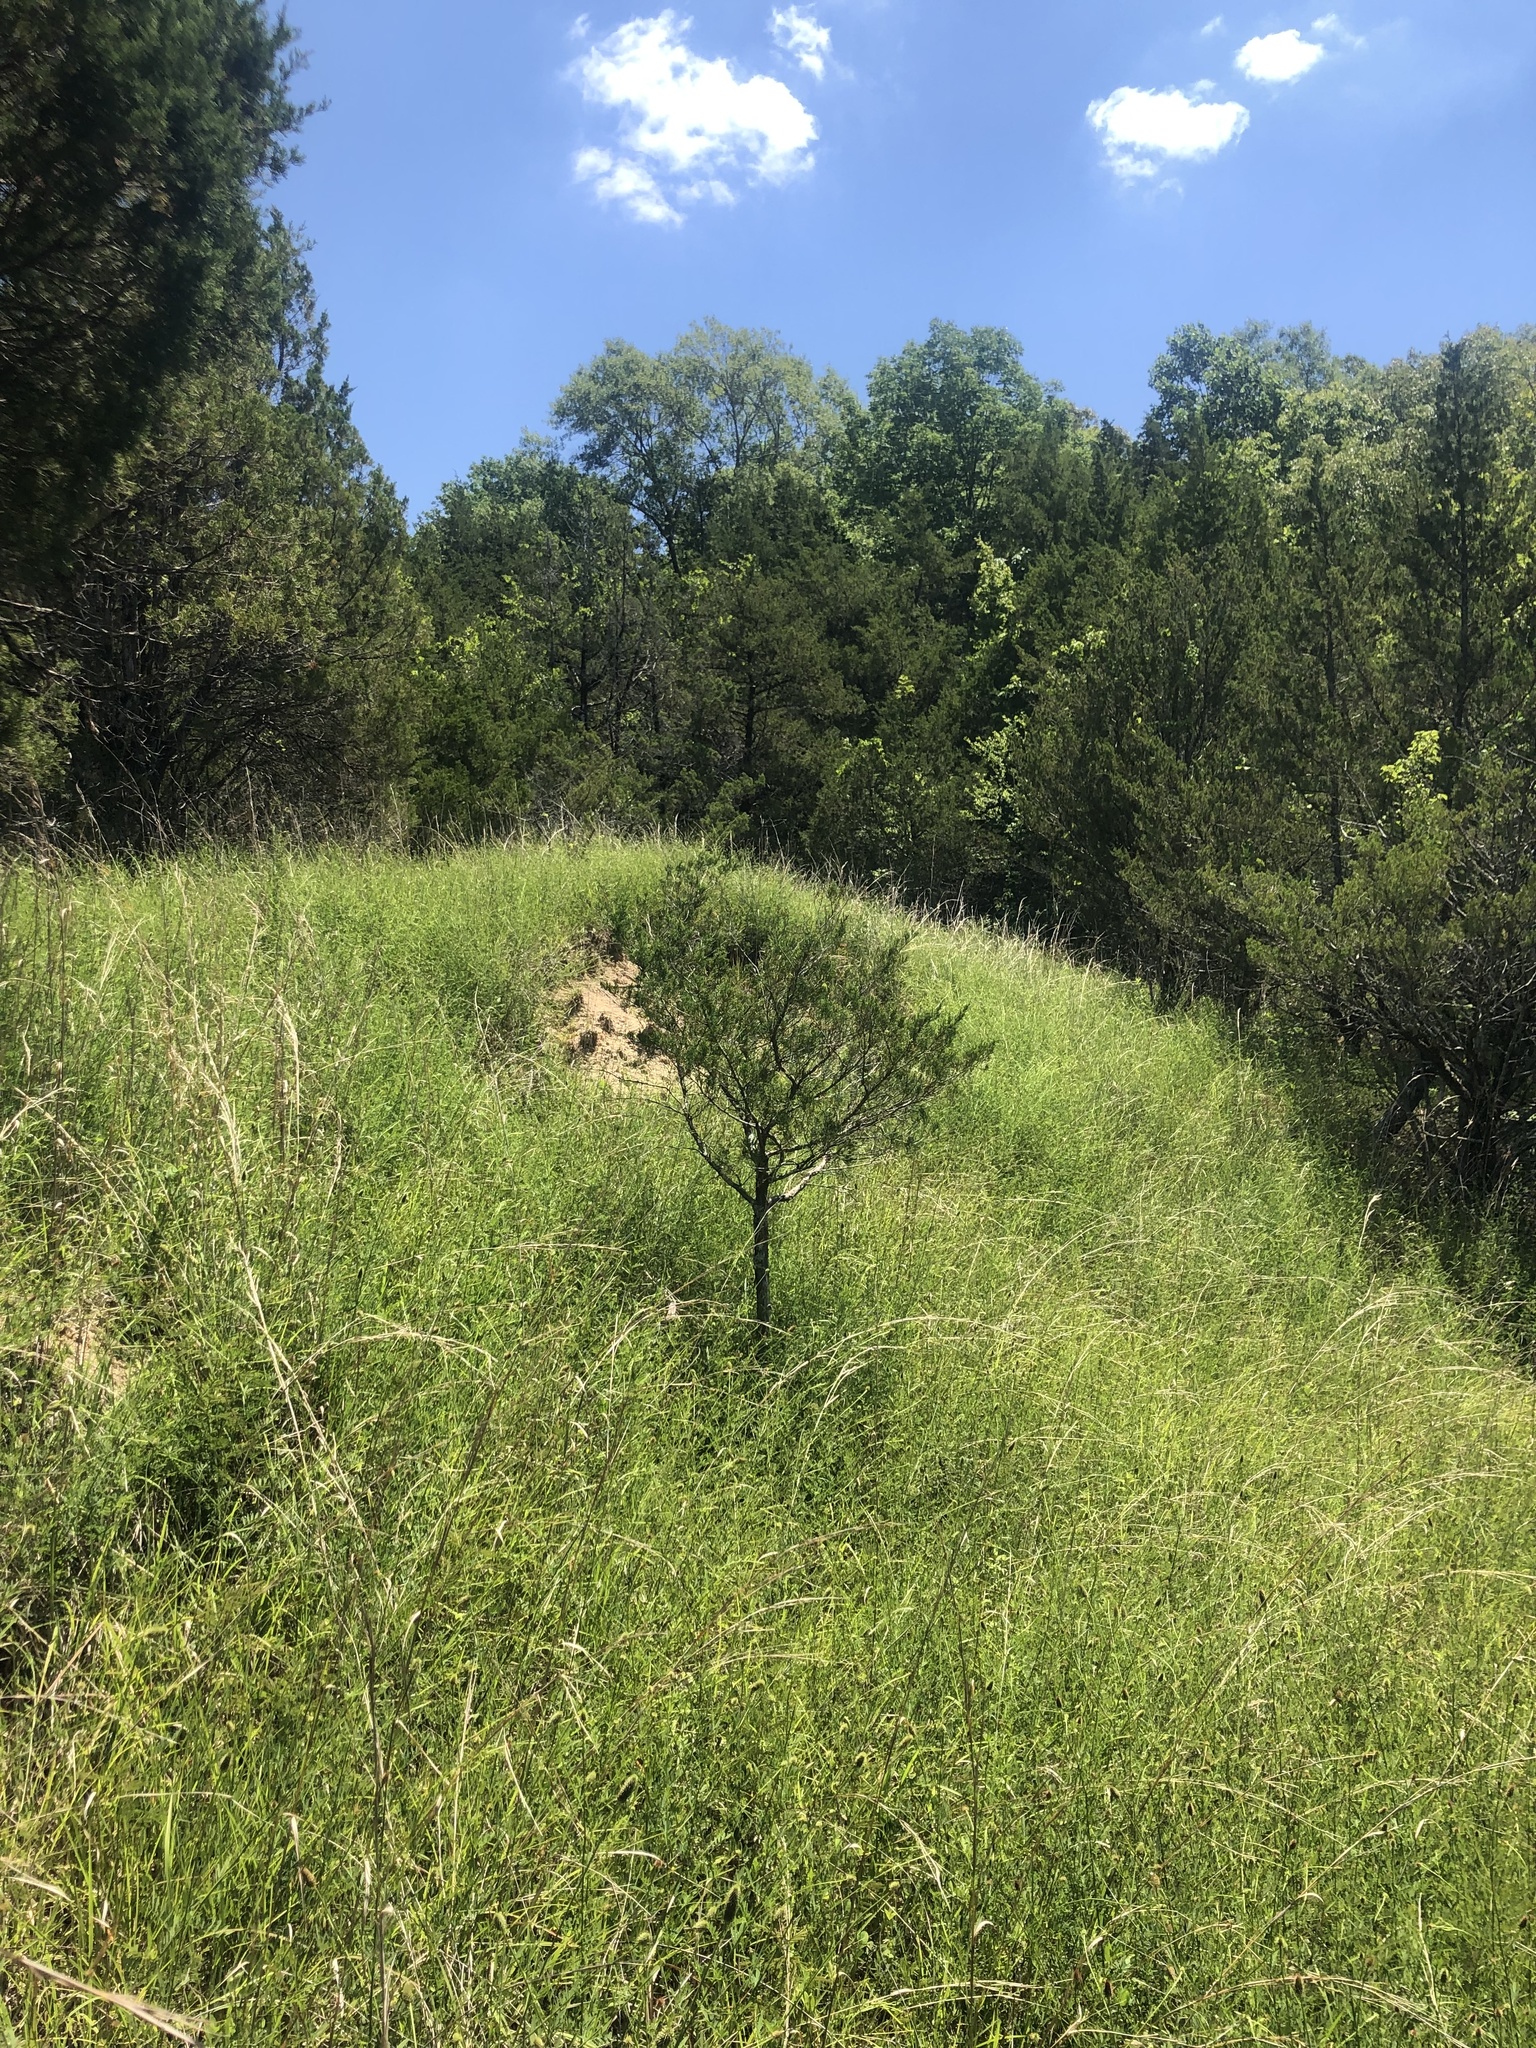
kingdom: Plantae
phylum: Tracheophyta
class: Magnoliopsida
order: Fabales
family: Fabaceae
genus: Dalea
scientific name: Dalea candida
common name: White prairie-clover
